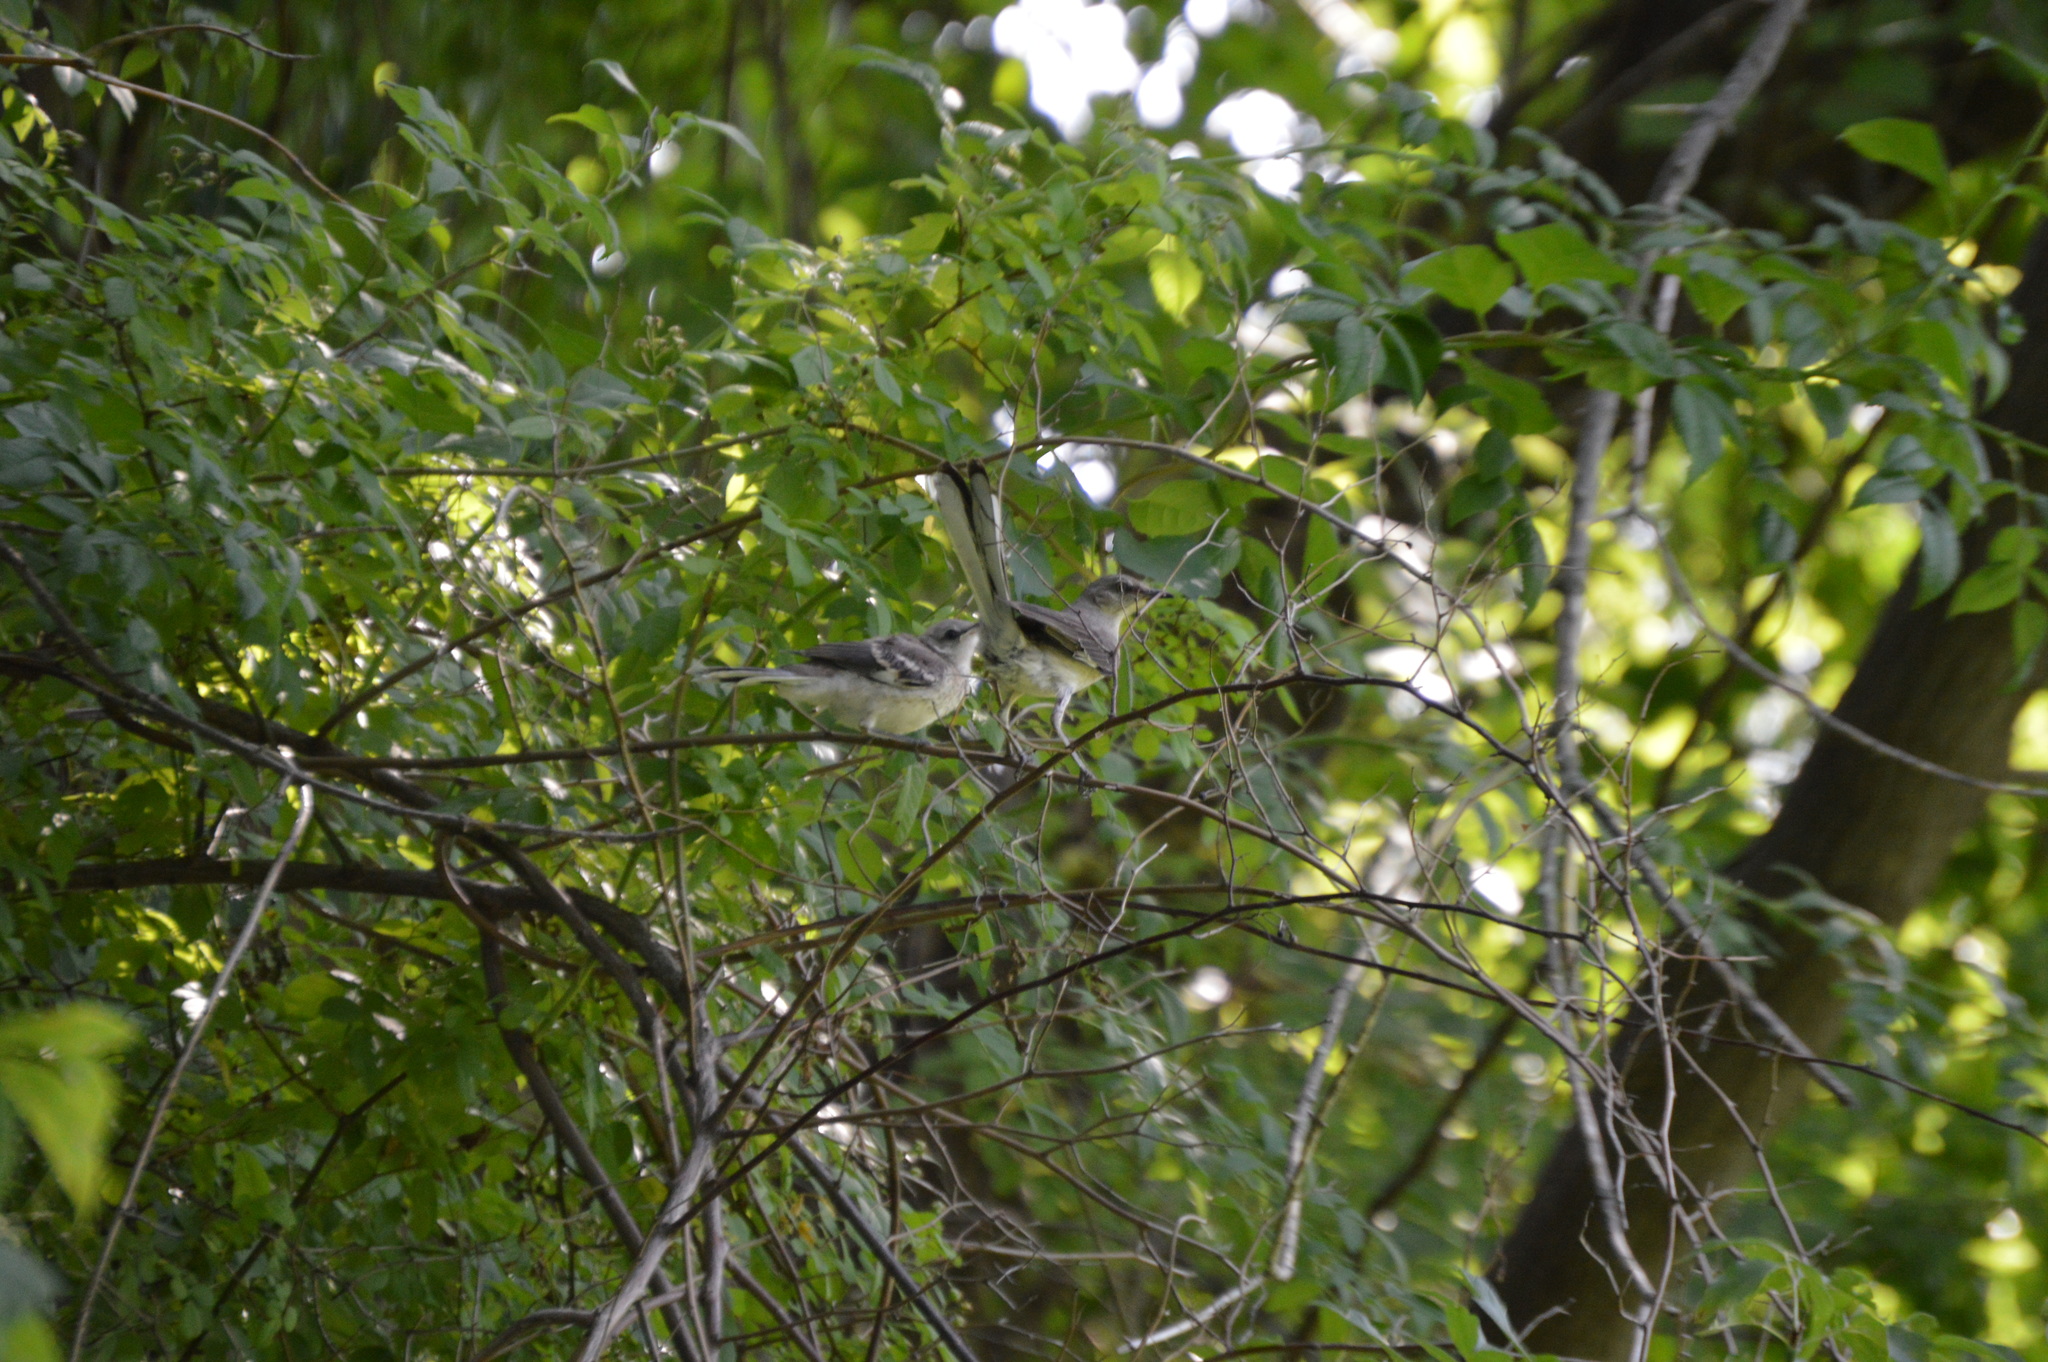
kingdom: Animalia
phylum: Chordata
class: Aves
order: Passeriformes
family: Mimidae
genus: Mimus
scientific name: Mimus polyglottos
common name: Northern mockingbird
